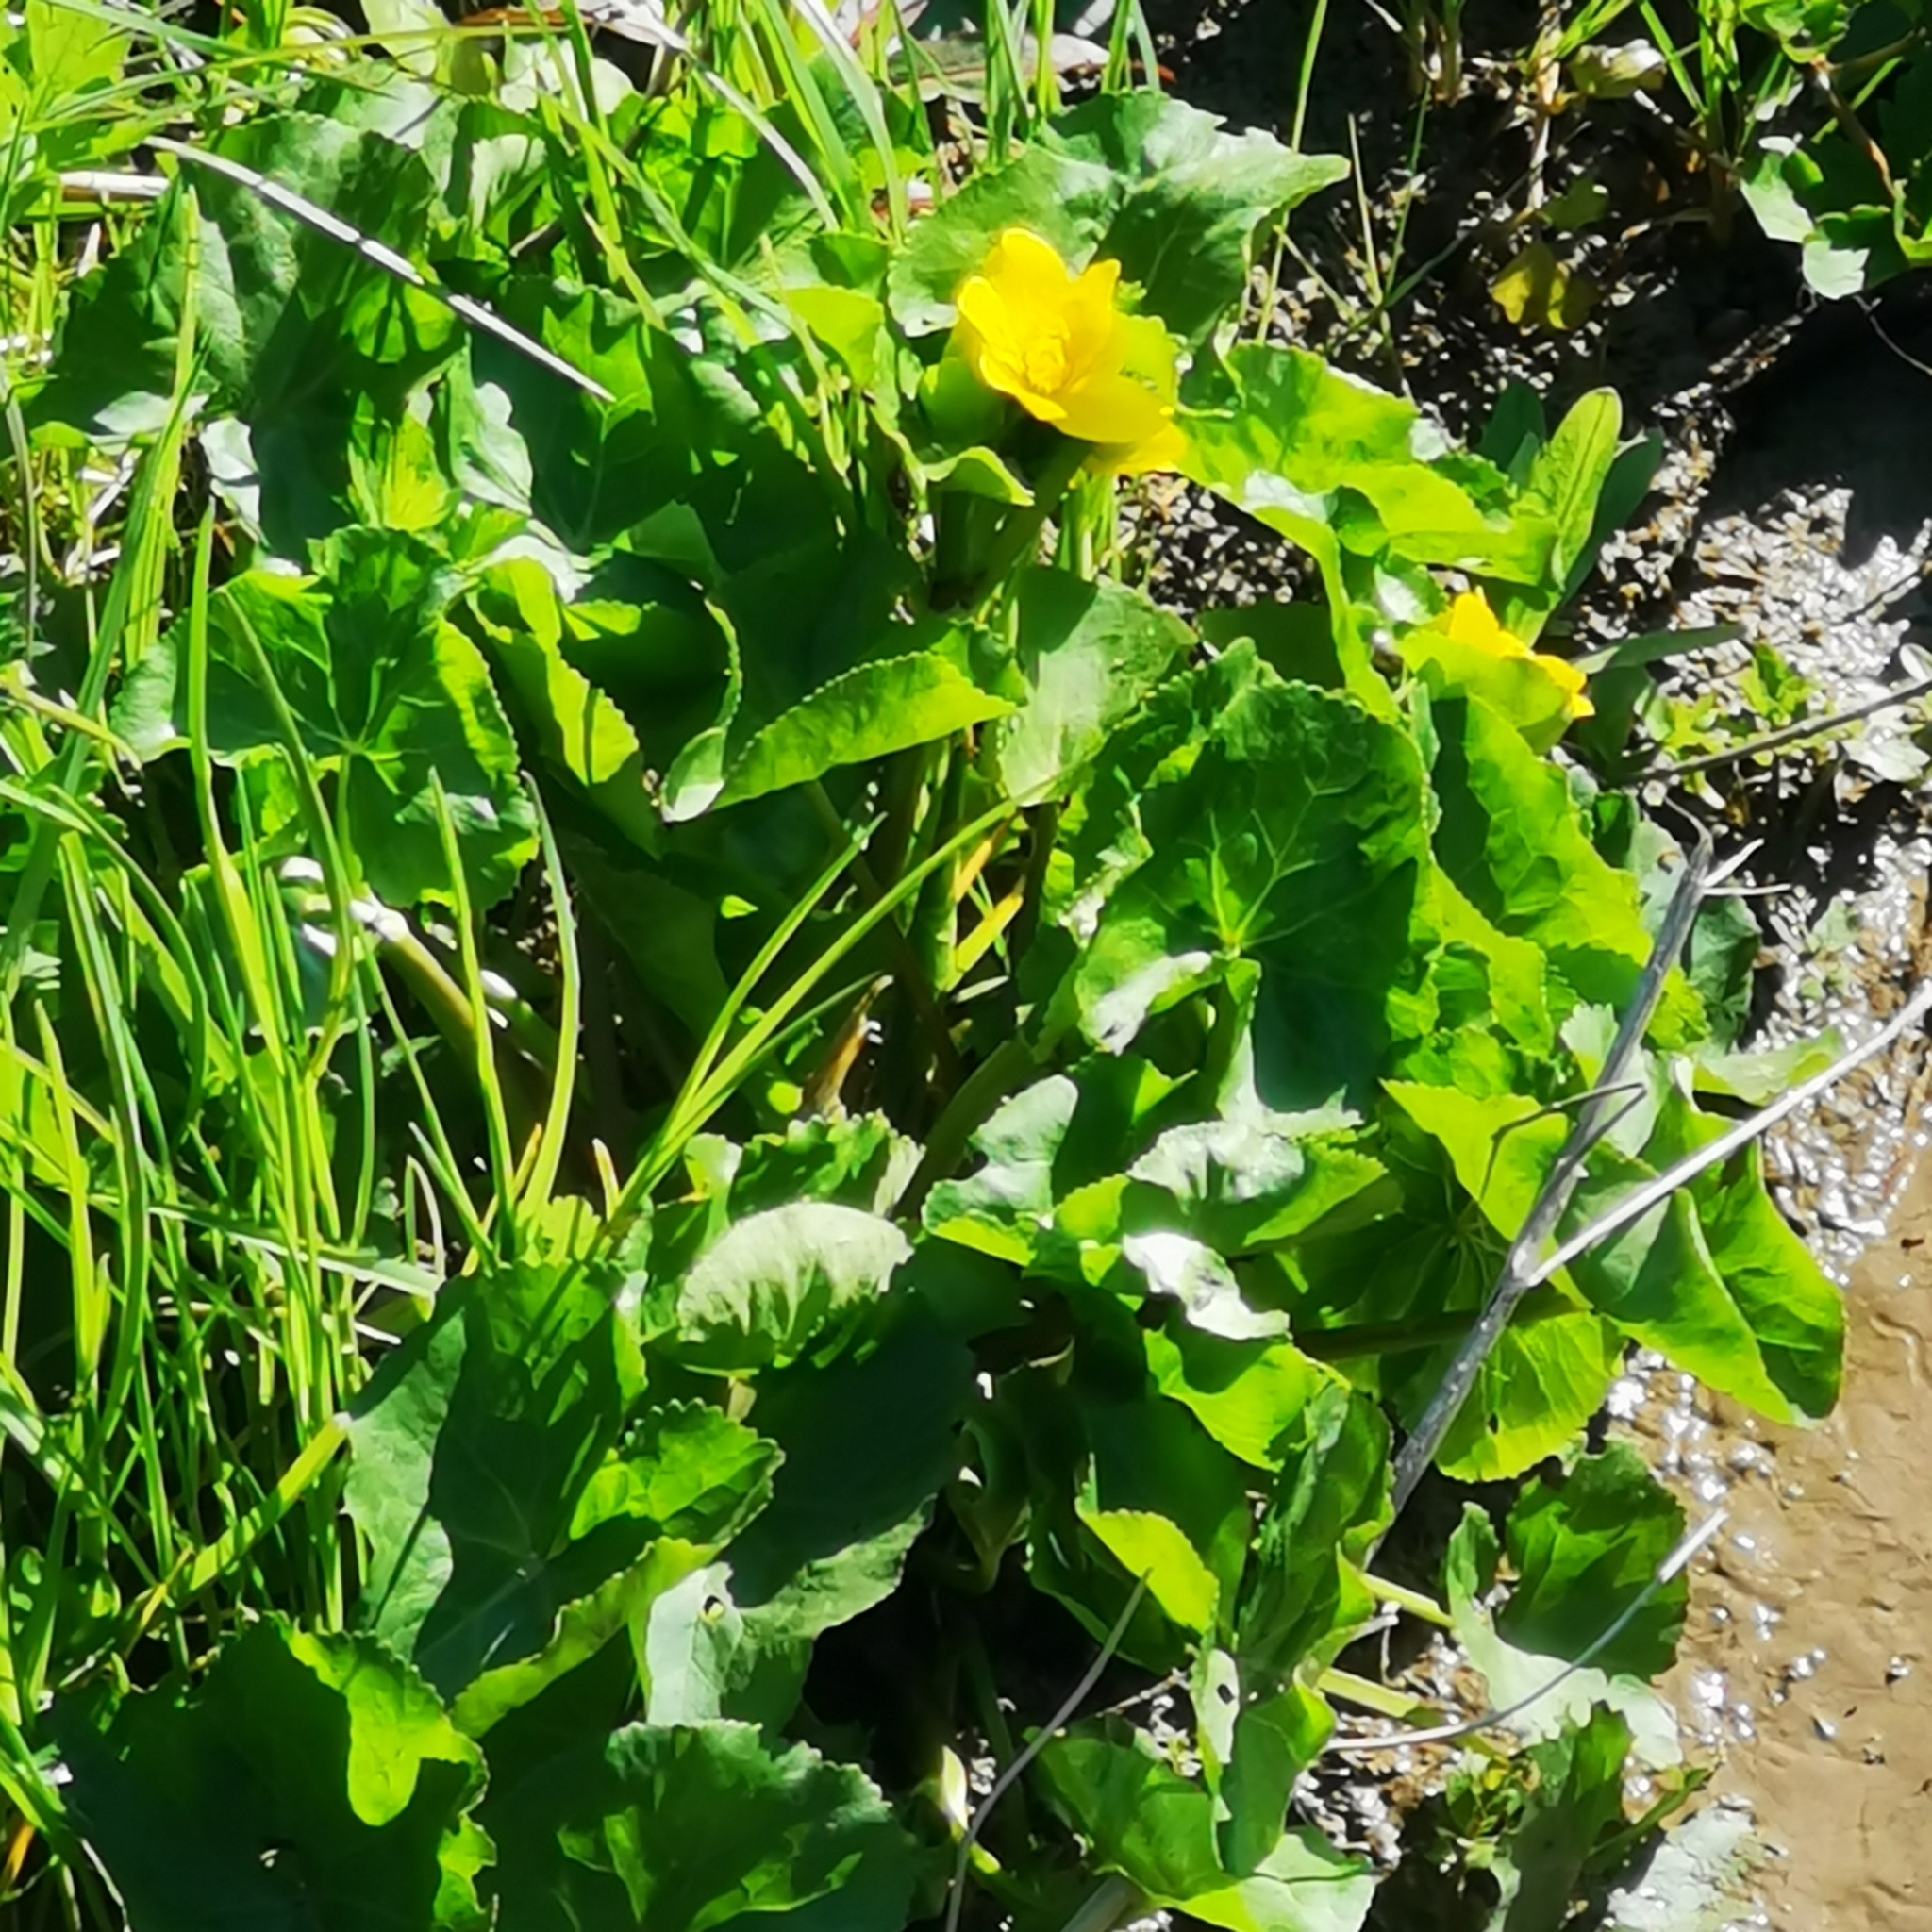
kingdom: Plantae
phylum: Tracheophyta
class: Magnoliopsida
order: Ranunculales
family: Ranunculaceae
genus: Caltha
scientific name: Caltha palustris
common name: Marsh marigold
